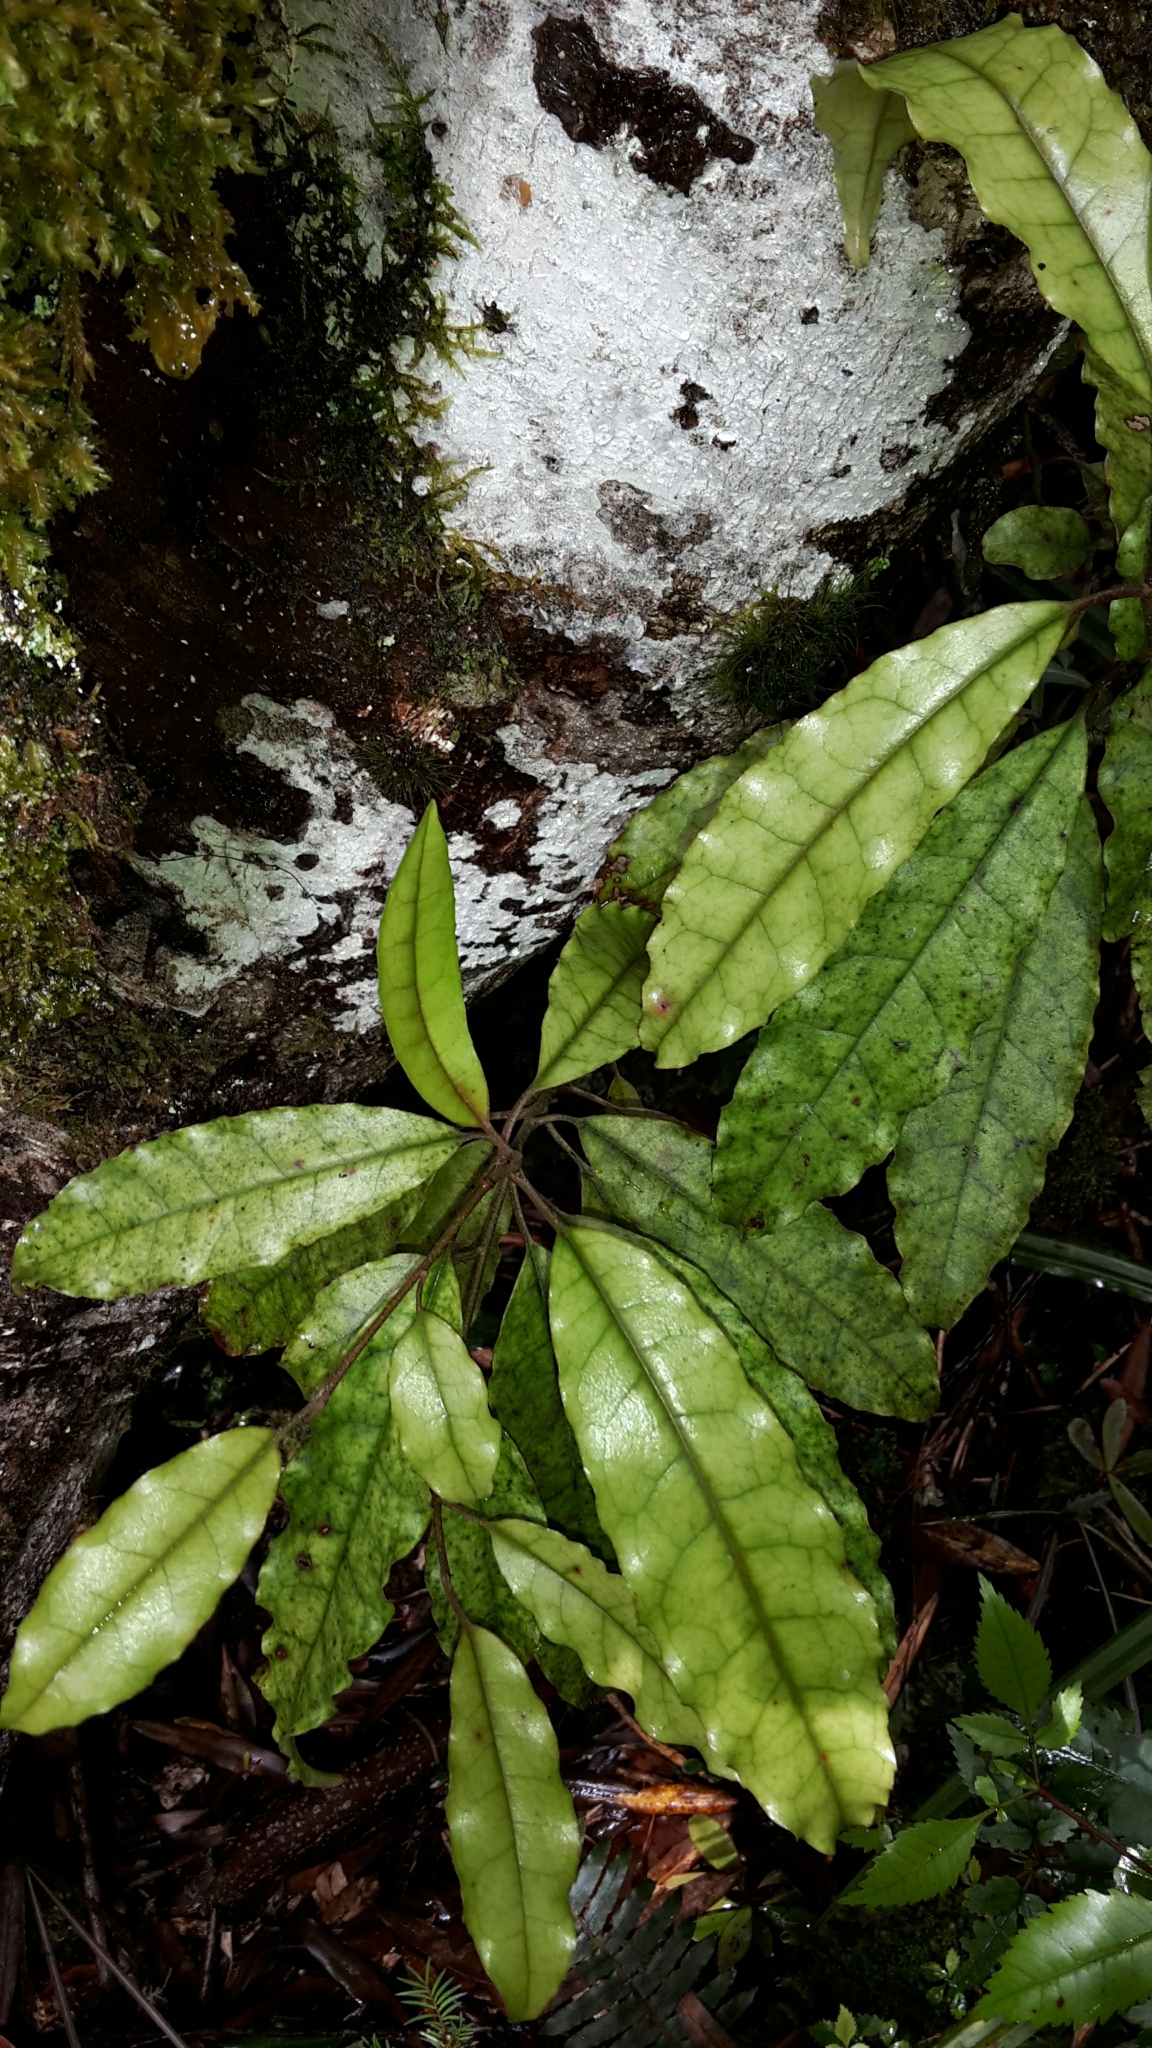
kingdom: Plantae
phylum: Tracheophyta
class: Magnoliopsida
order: Paracryphiales
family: Paracryphiaceae
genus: Quintinia
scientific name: Quintinia serrata
